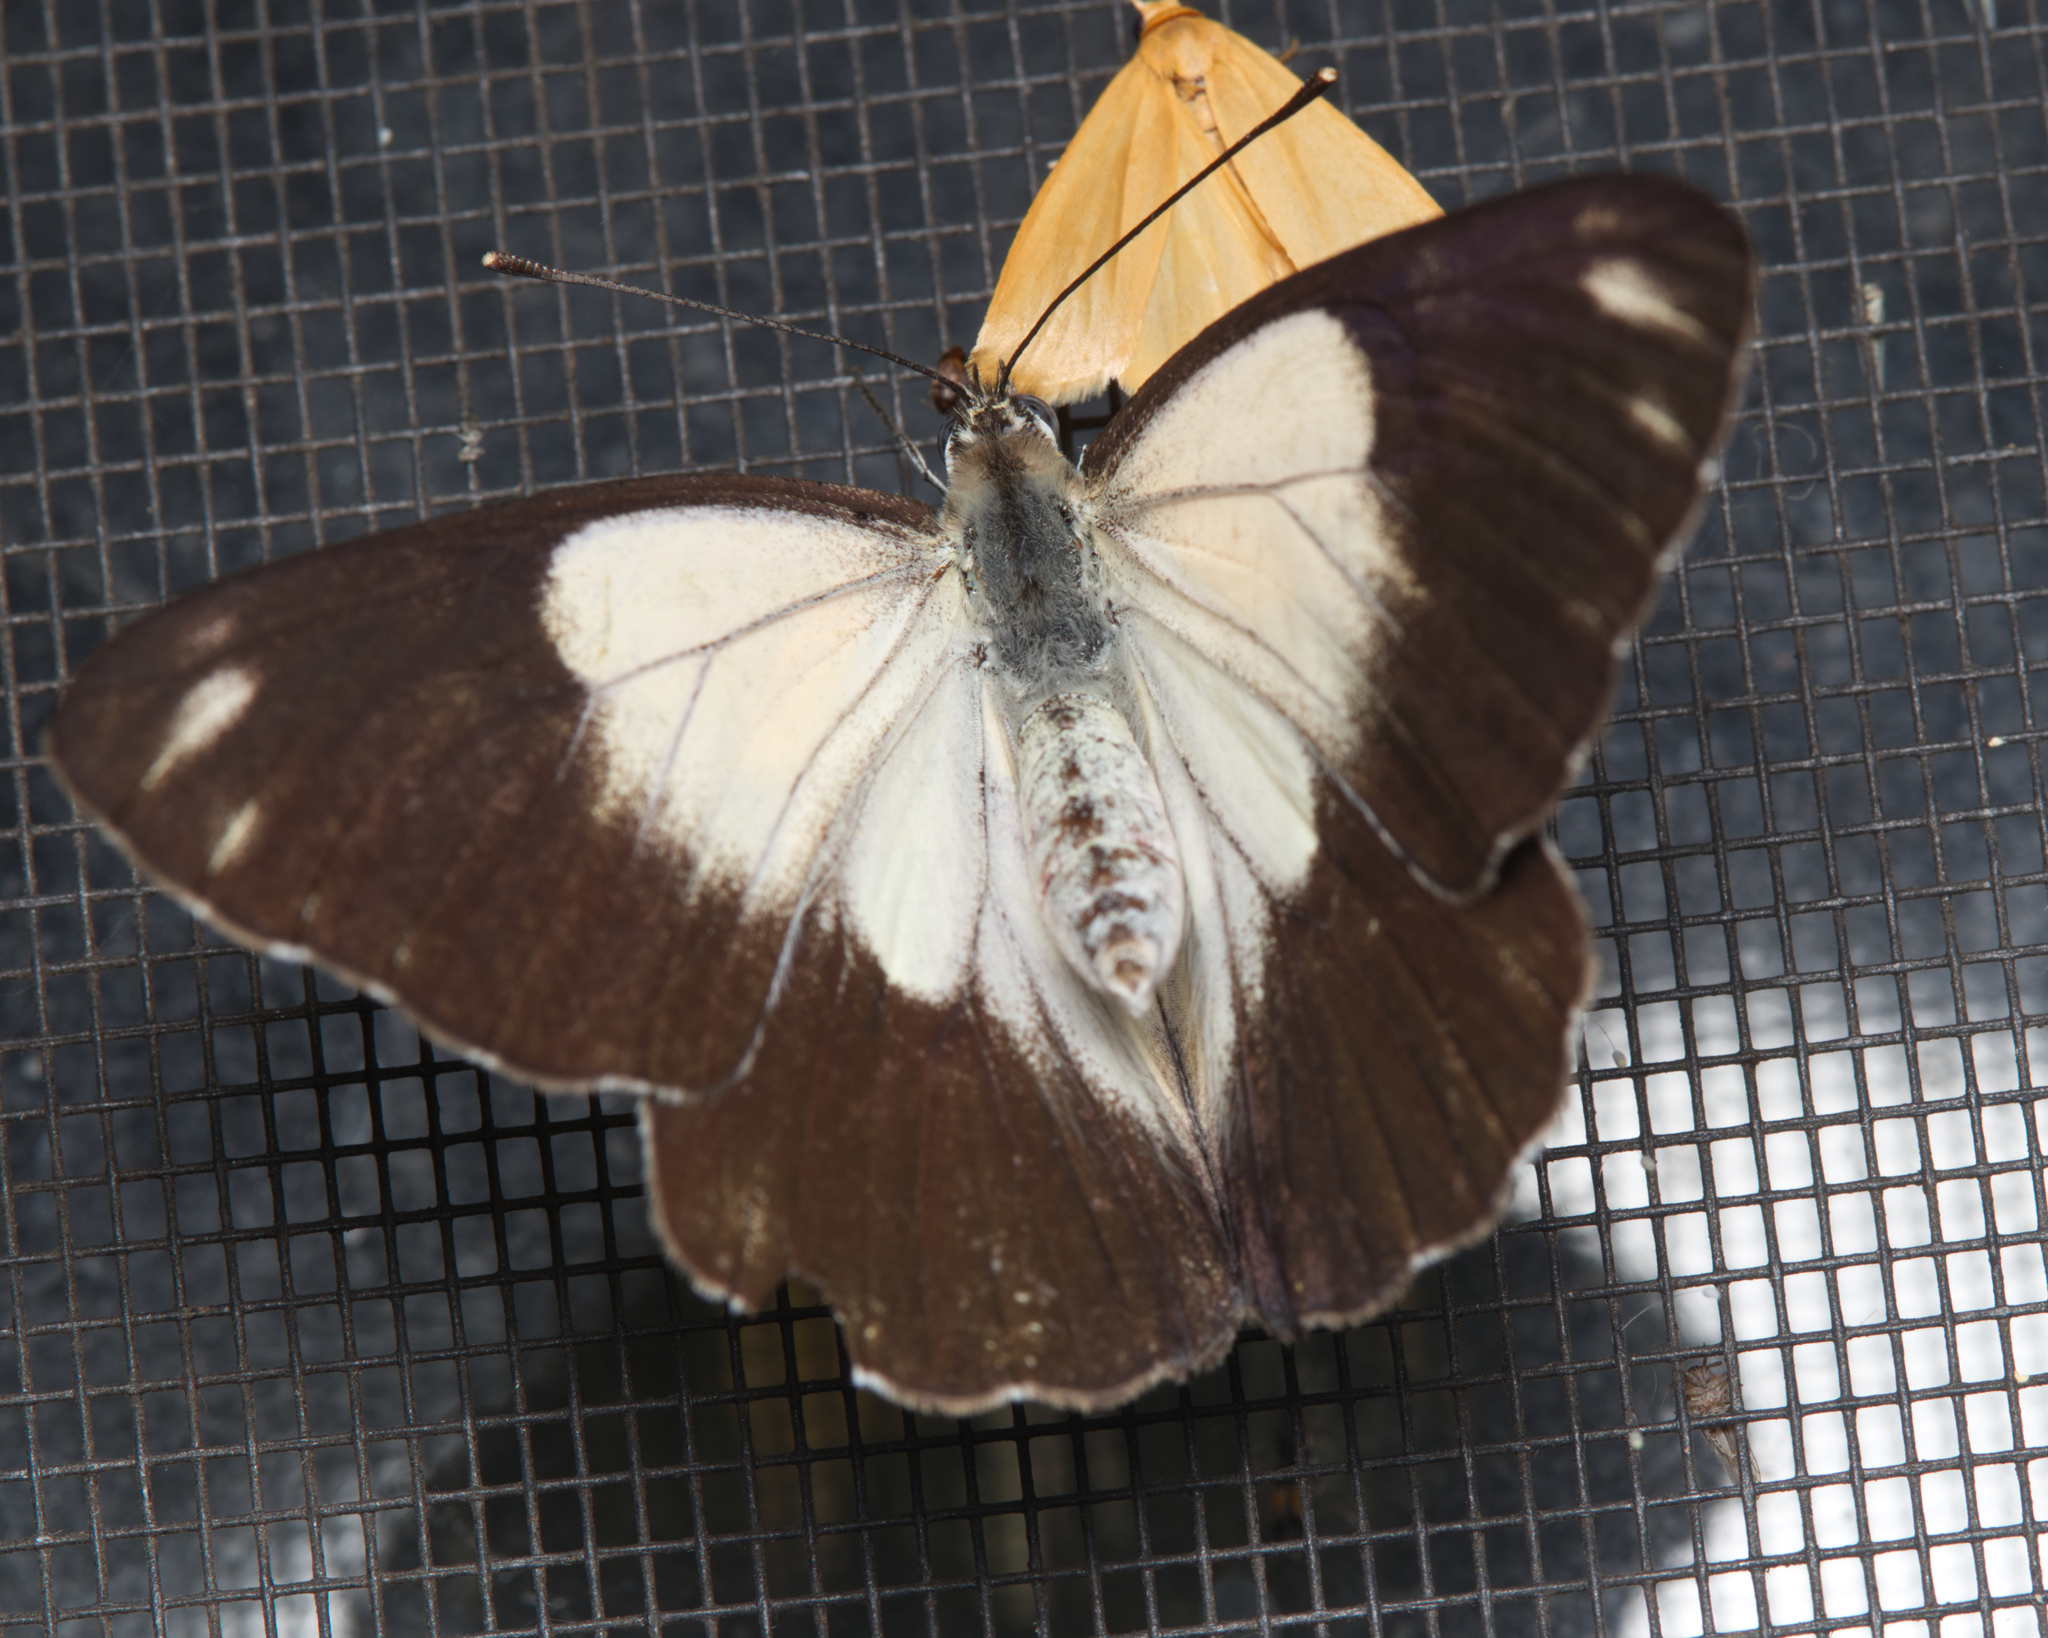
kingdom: Animalia
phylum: Arthropoda
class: Insecta
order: Lepidoptera
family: Pieridae
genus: Belenois
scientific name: Belenois java
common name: Caper white
